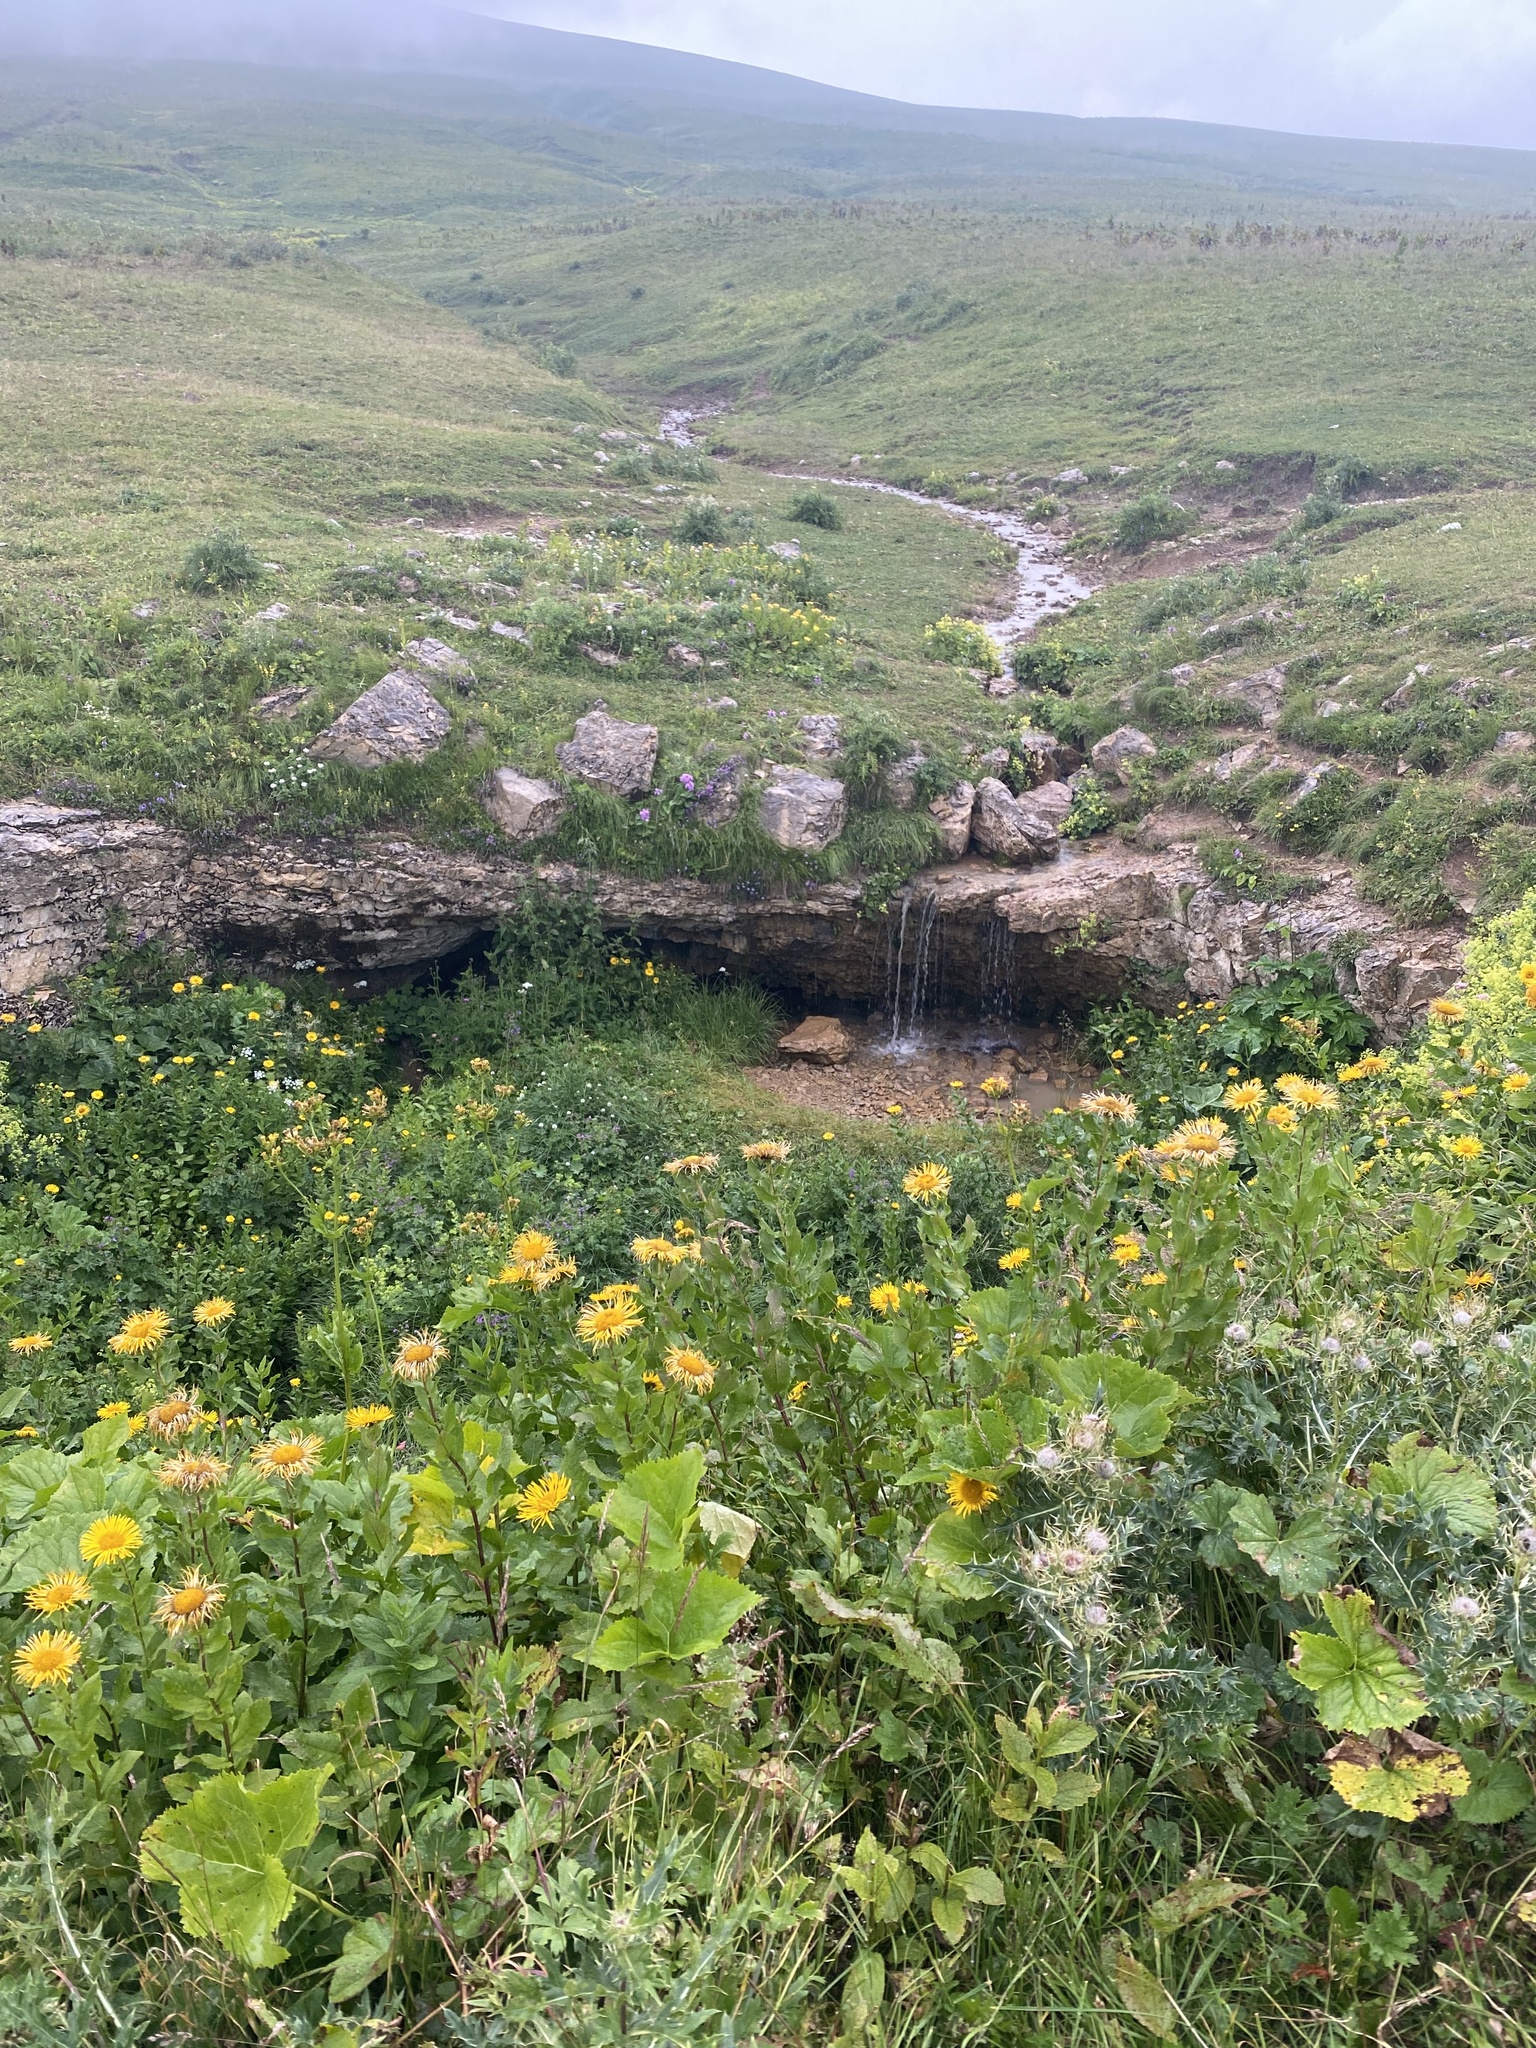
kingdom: Plantae
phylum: Tracheophyta
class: Magnoliopsida
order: Asterales
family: Asteraceae
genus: Pentanema
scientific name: Pentanema orientale
